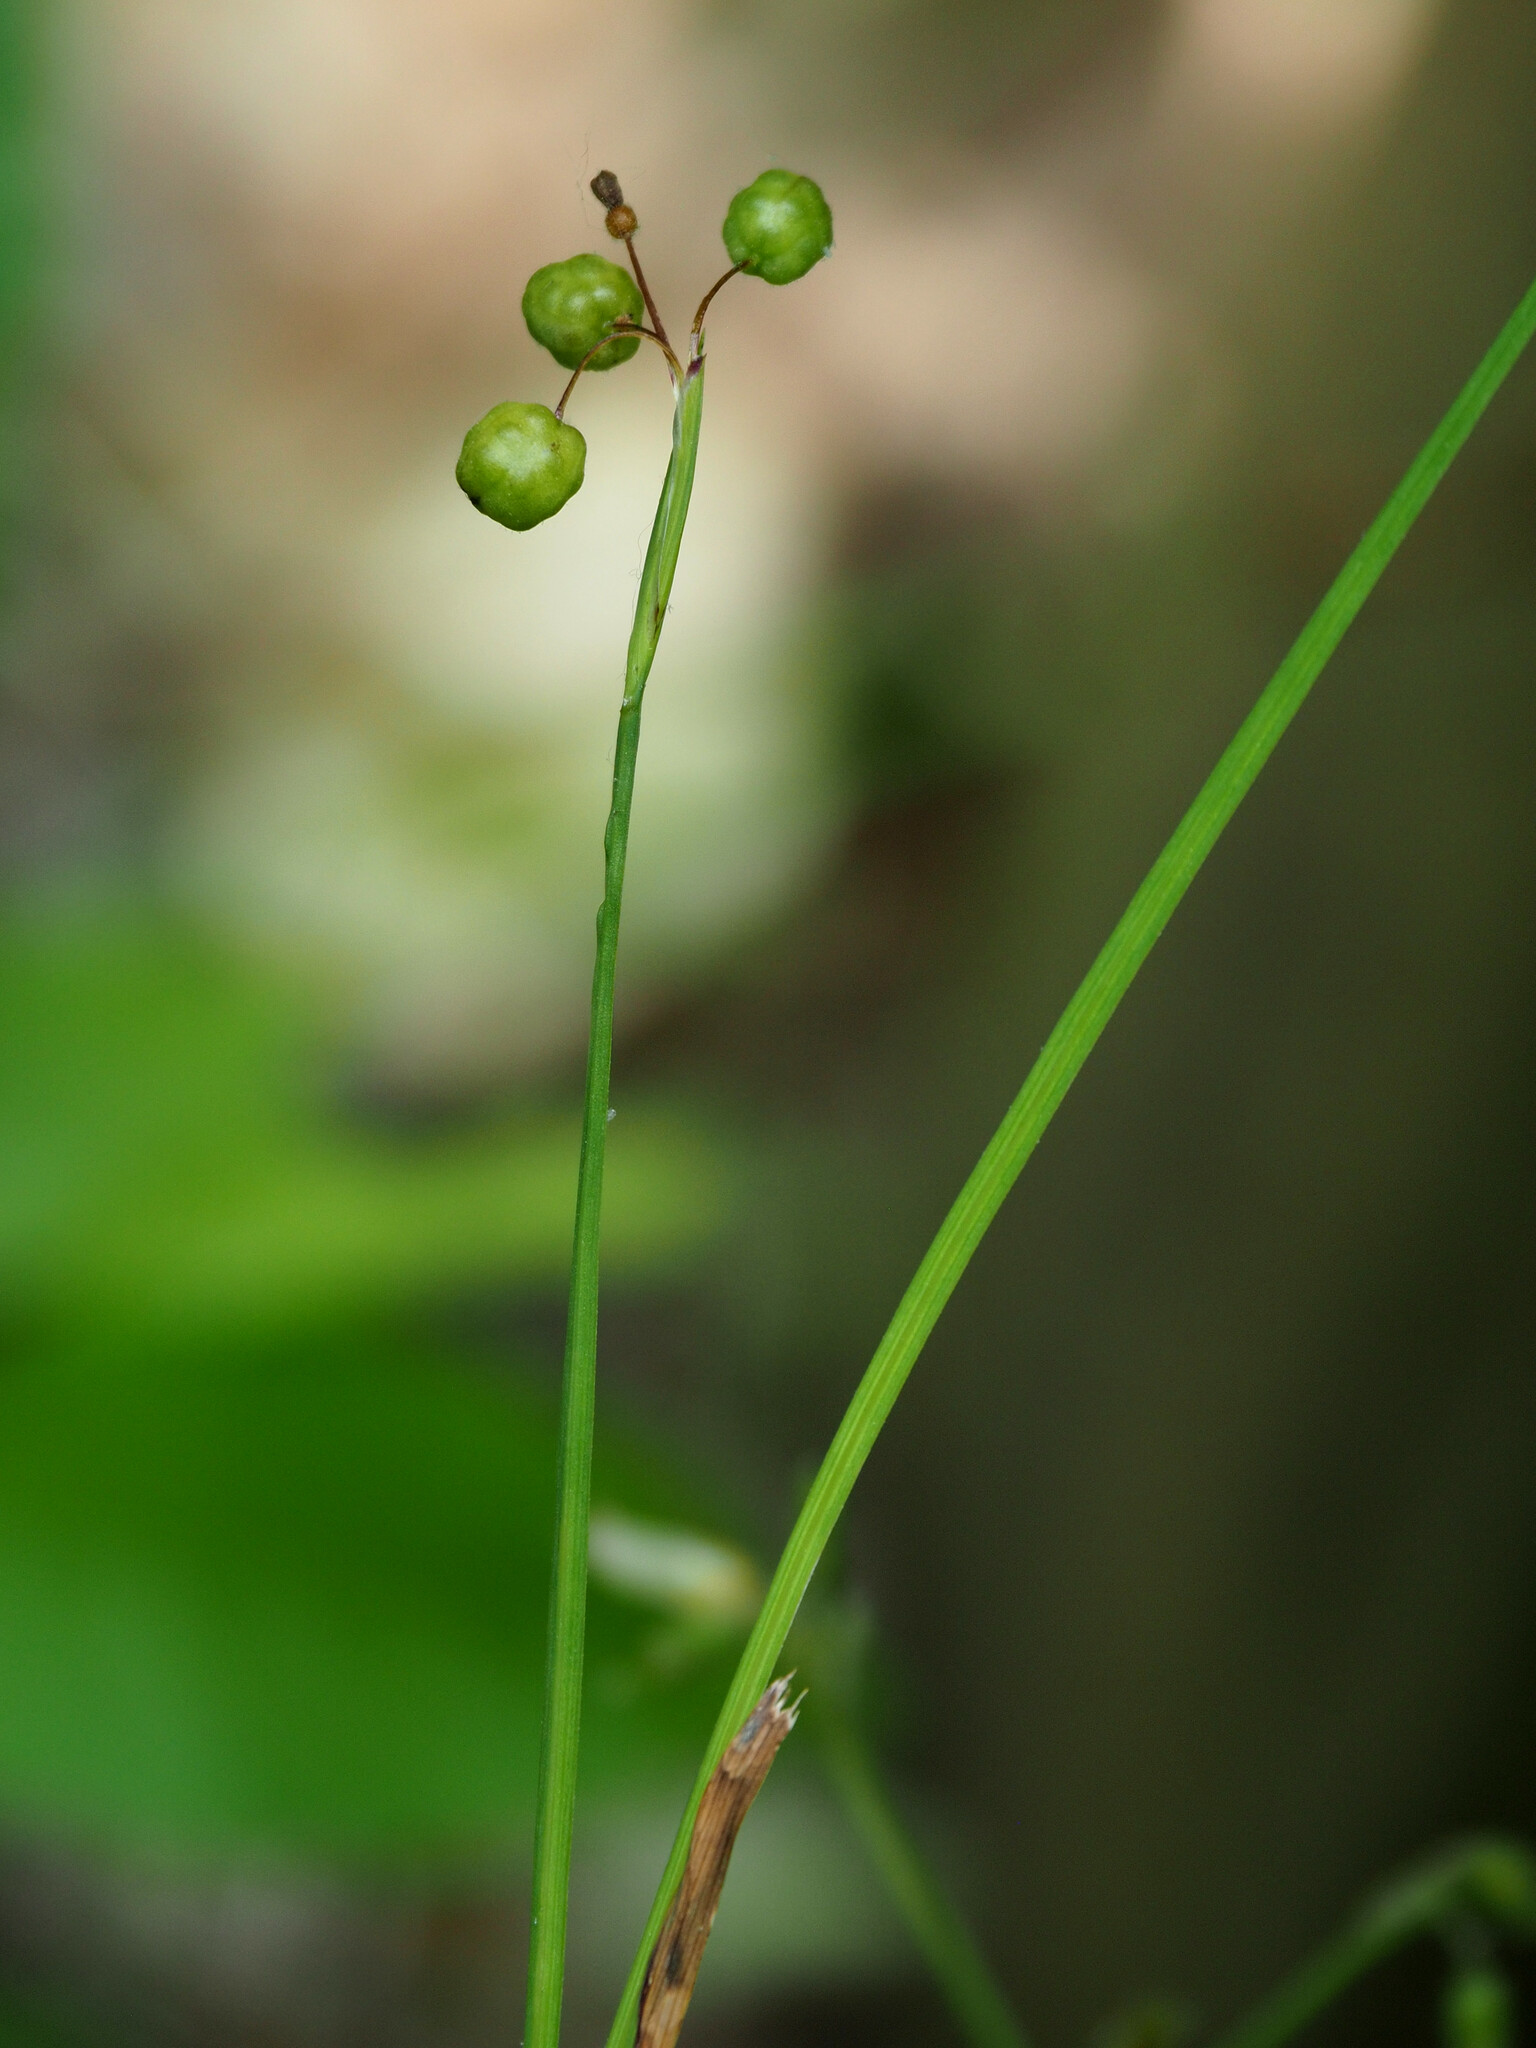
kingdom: Plantae
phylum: Tracheophyta
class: Liliopsida
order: Asparagales
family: Iridaceae
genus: Sisyrinchium
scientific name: Sisyrinchium atlanticum
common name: Eastern blue-eyed-grass
